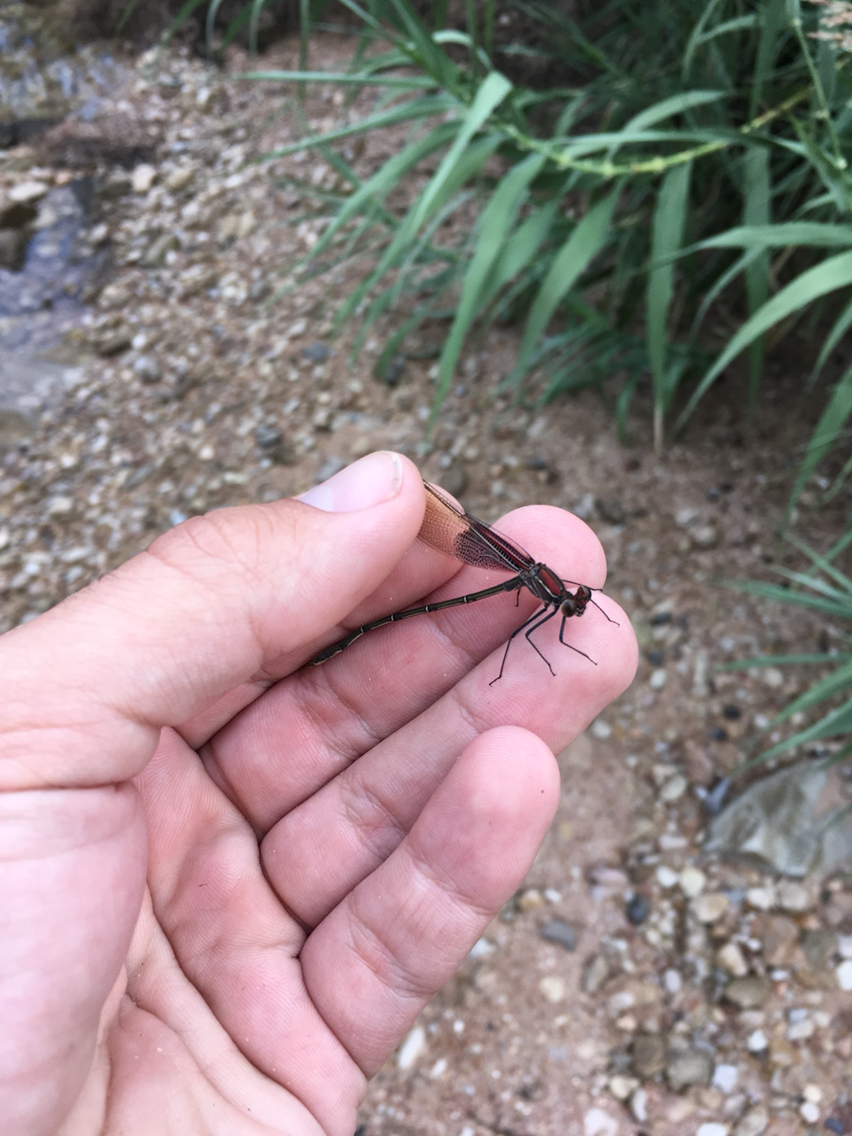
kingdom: Animalia
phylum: Arthropoda
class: Insecta
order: Odonata
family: Calopterygidae
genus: Hetaerina
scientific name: Hetaerina americana
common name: American rubyspot
